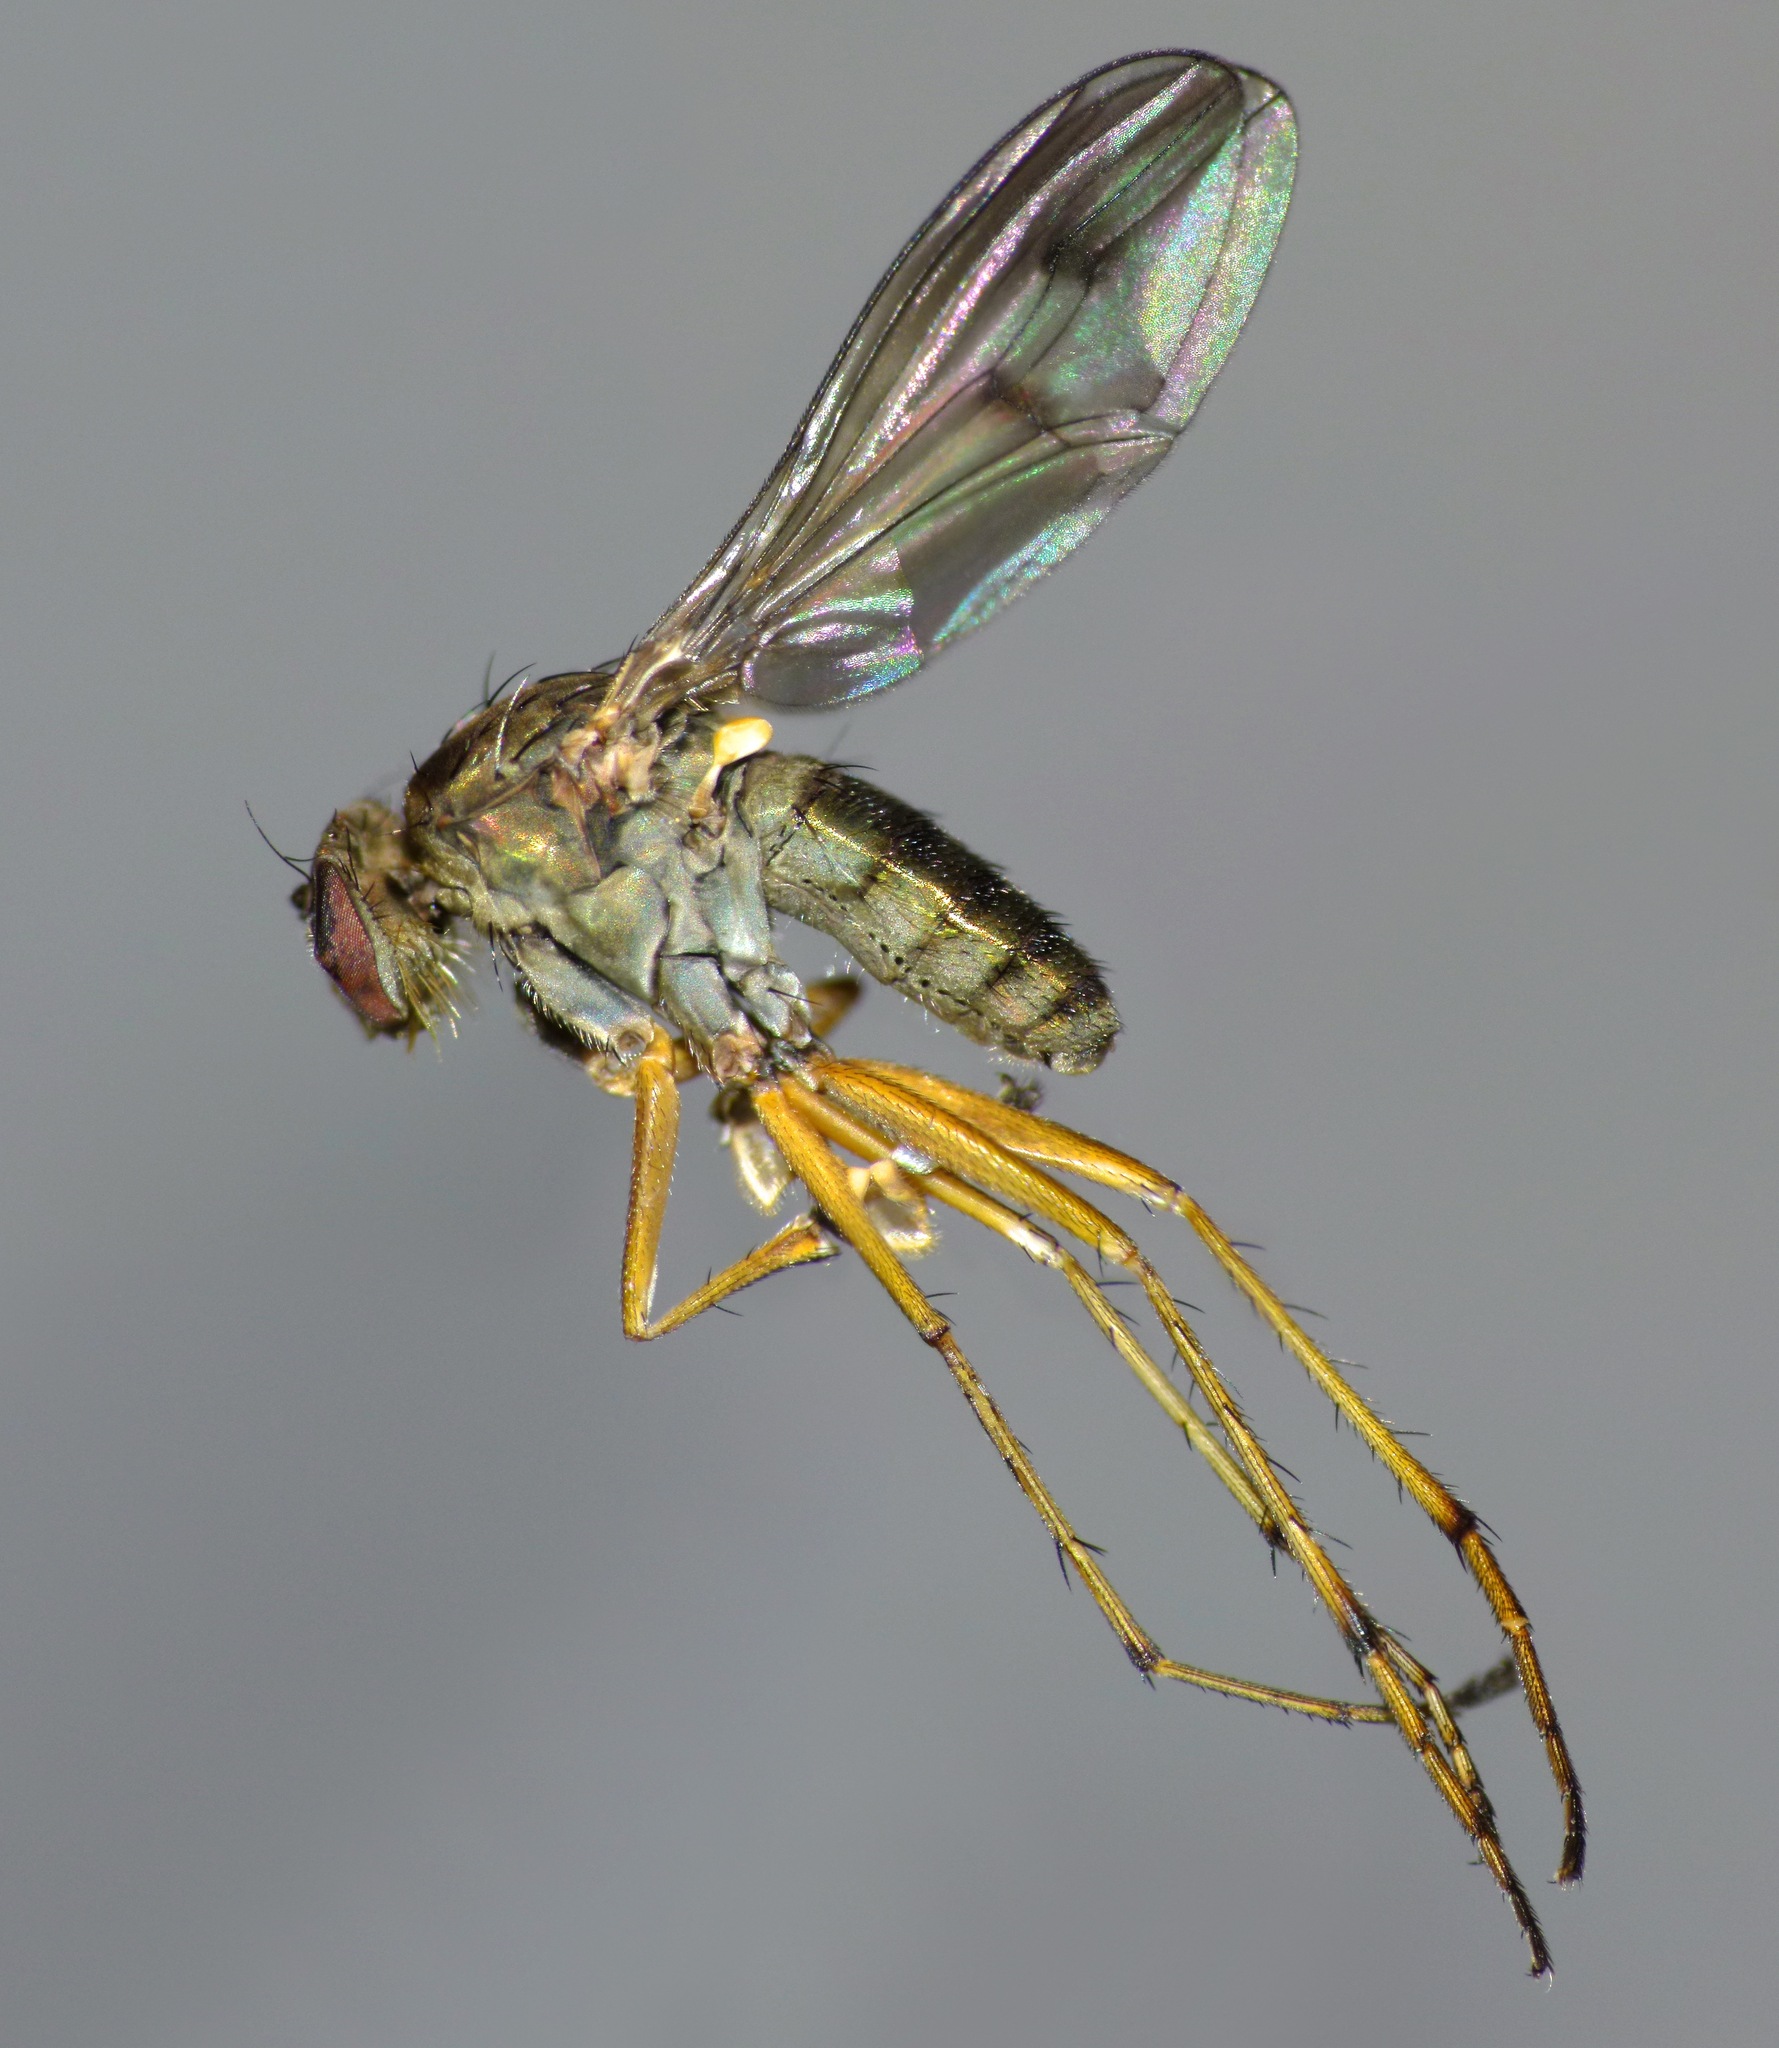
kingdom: Animalia
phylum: Arthropoda
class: Insecta
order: Diptera
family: Dolichopodidae
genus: Helichochaetus
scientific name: Helichochaetus discifer
